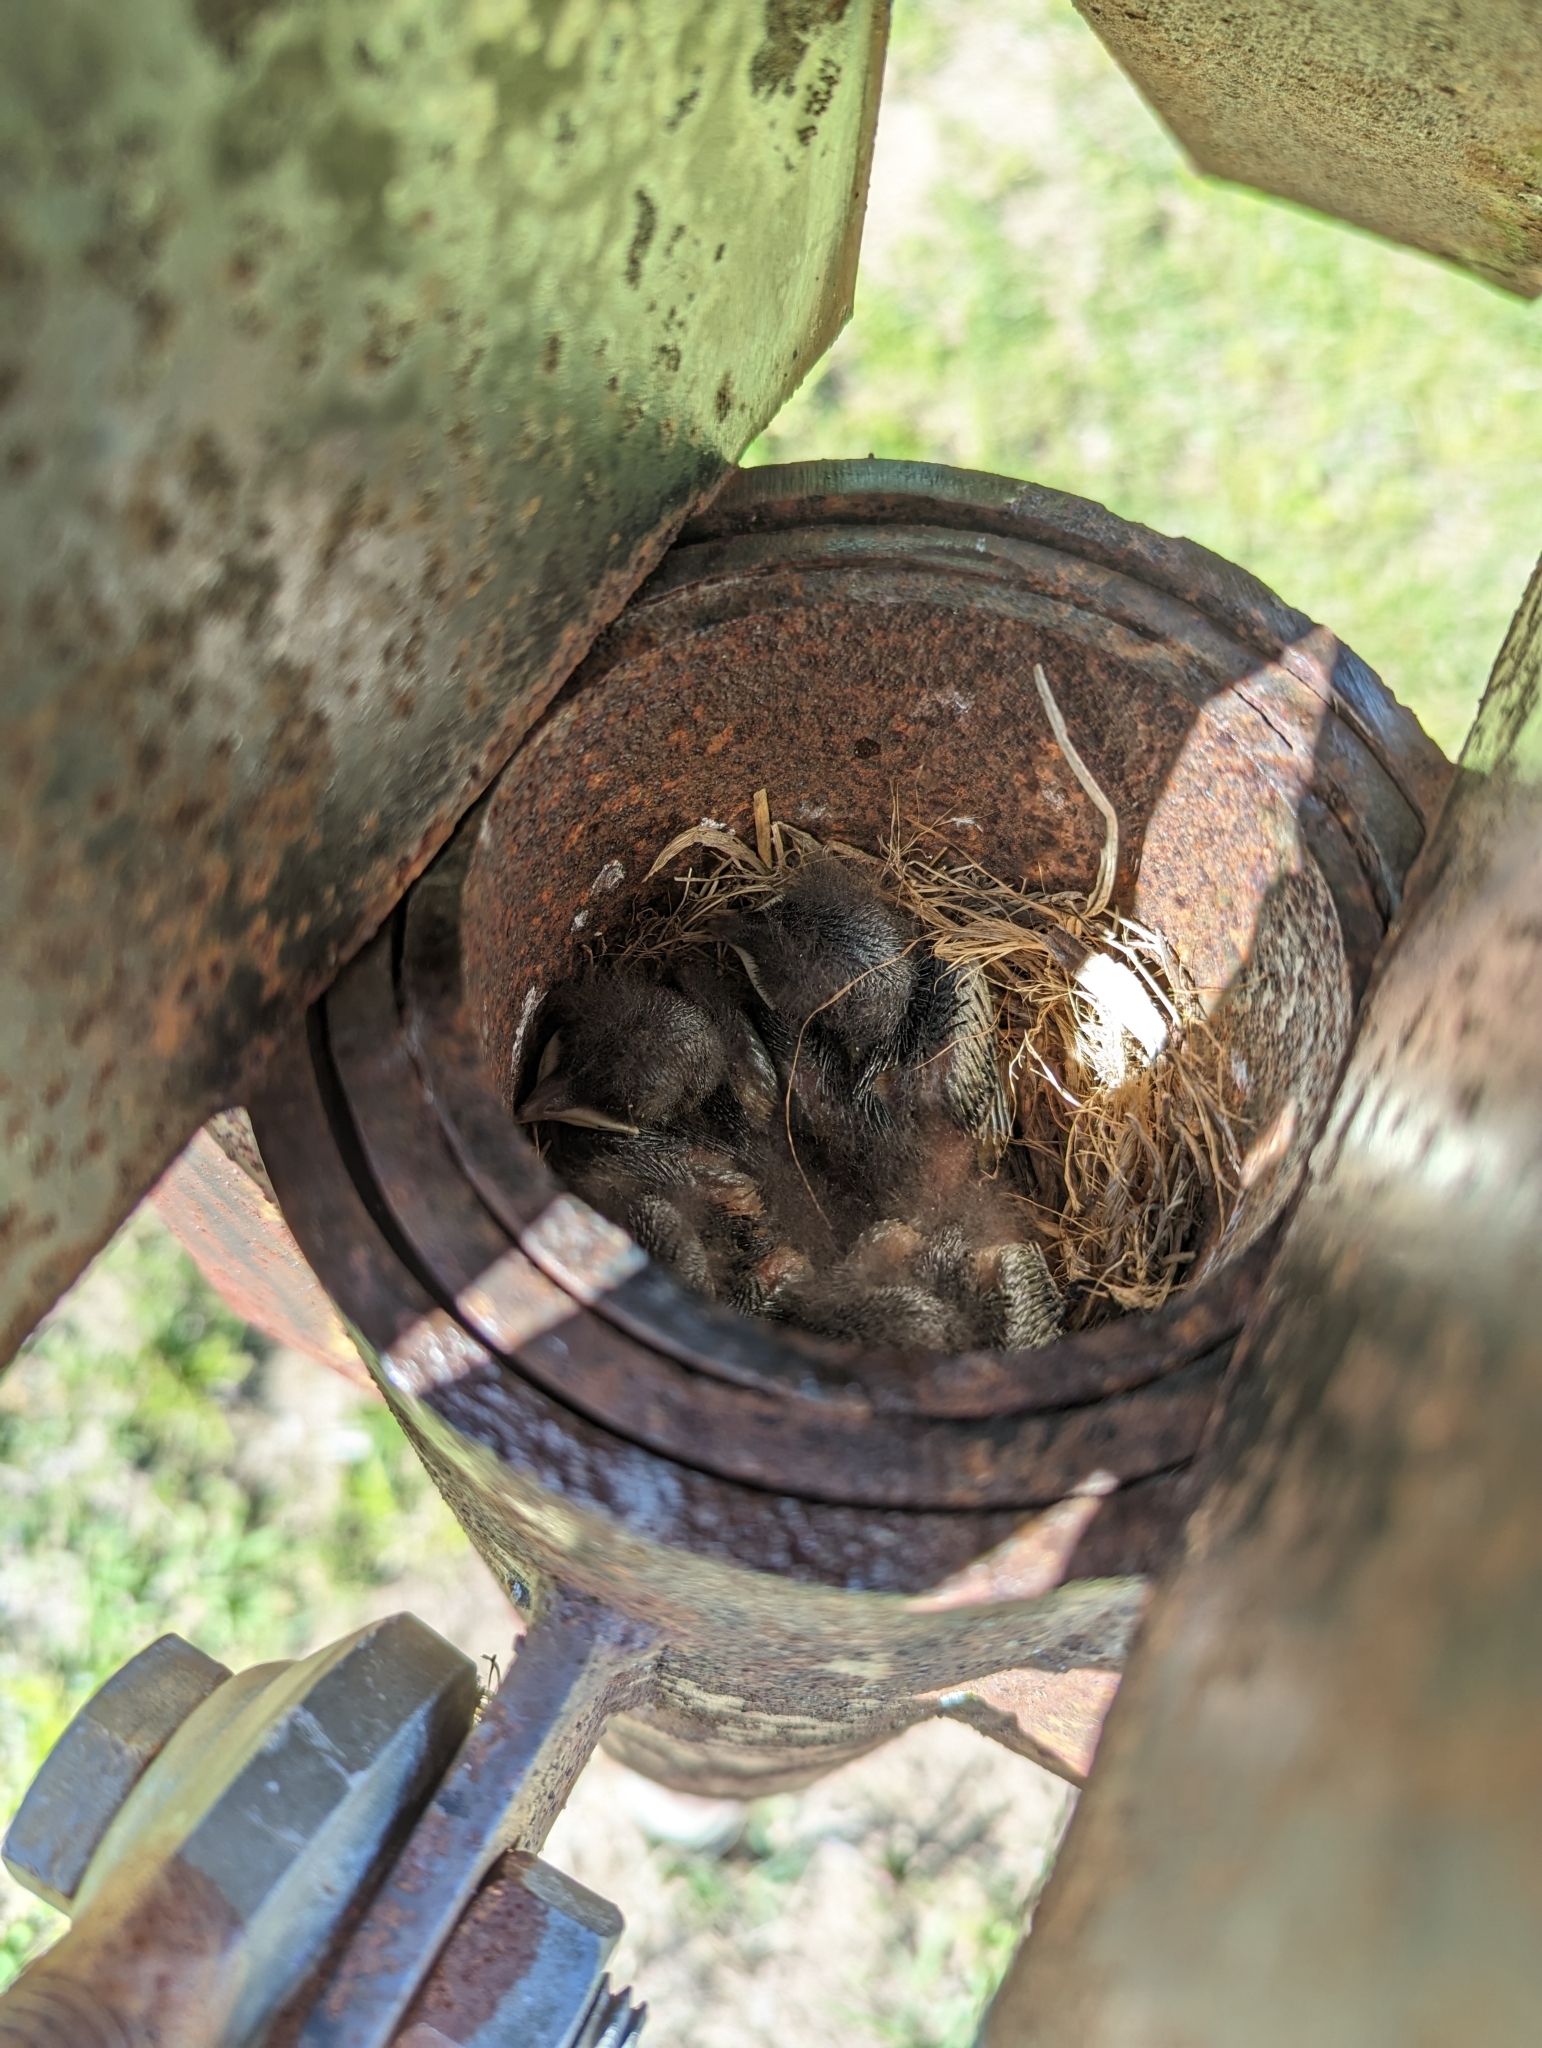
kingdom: Animalia
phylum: Chordata
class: Aves
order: Passeriformes
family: Turdidae
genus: Sialia
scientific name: Sialia sialis
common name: Eastern bluebird
